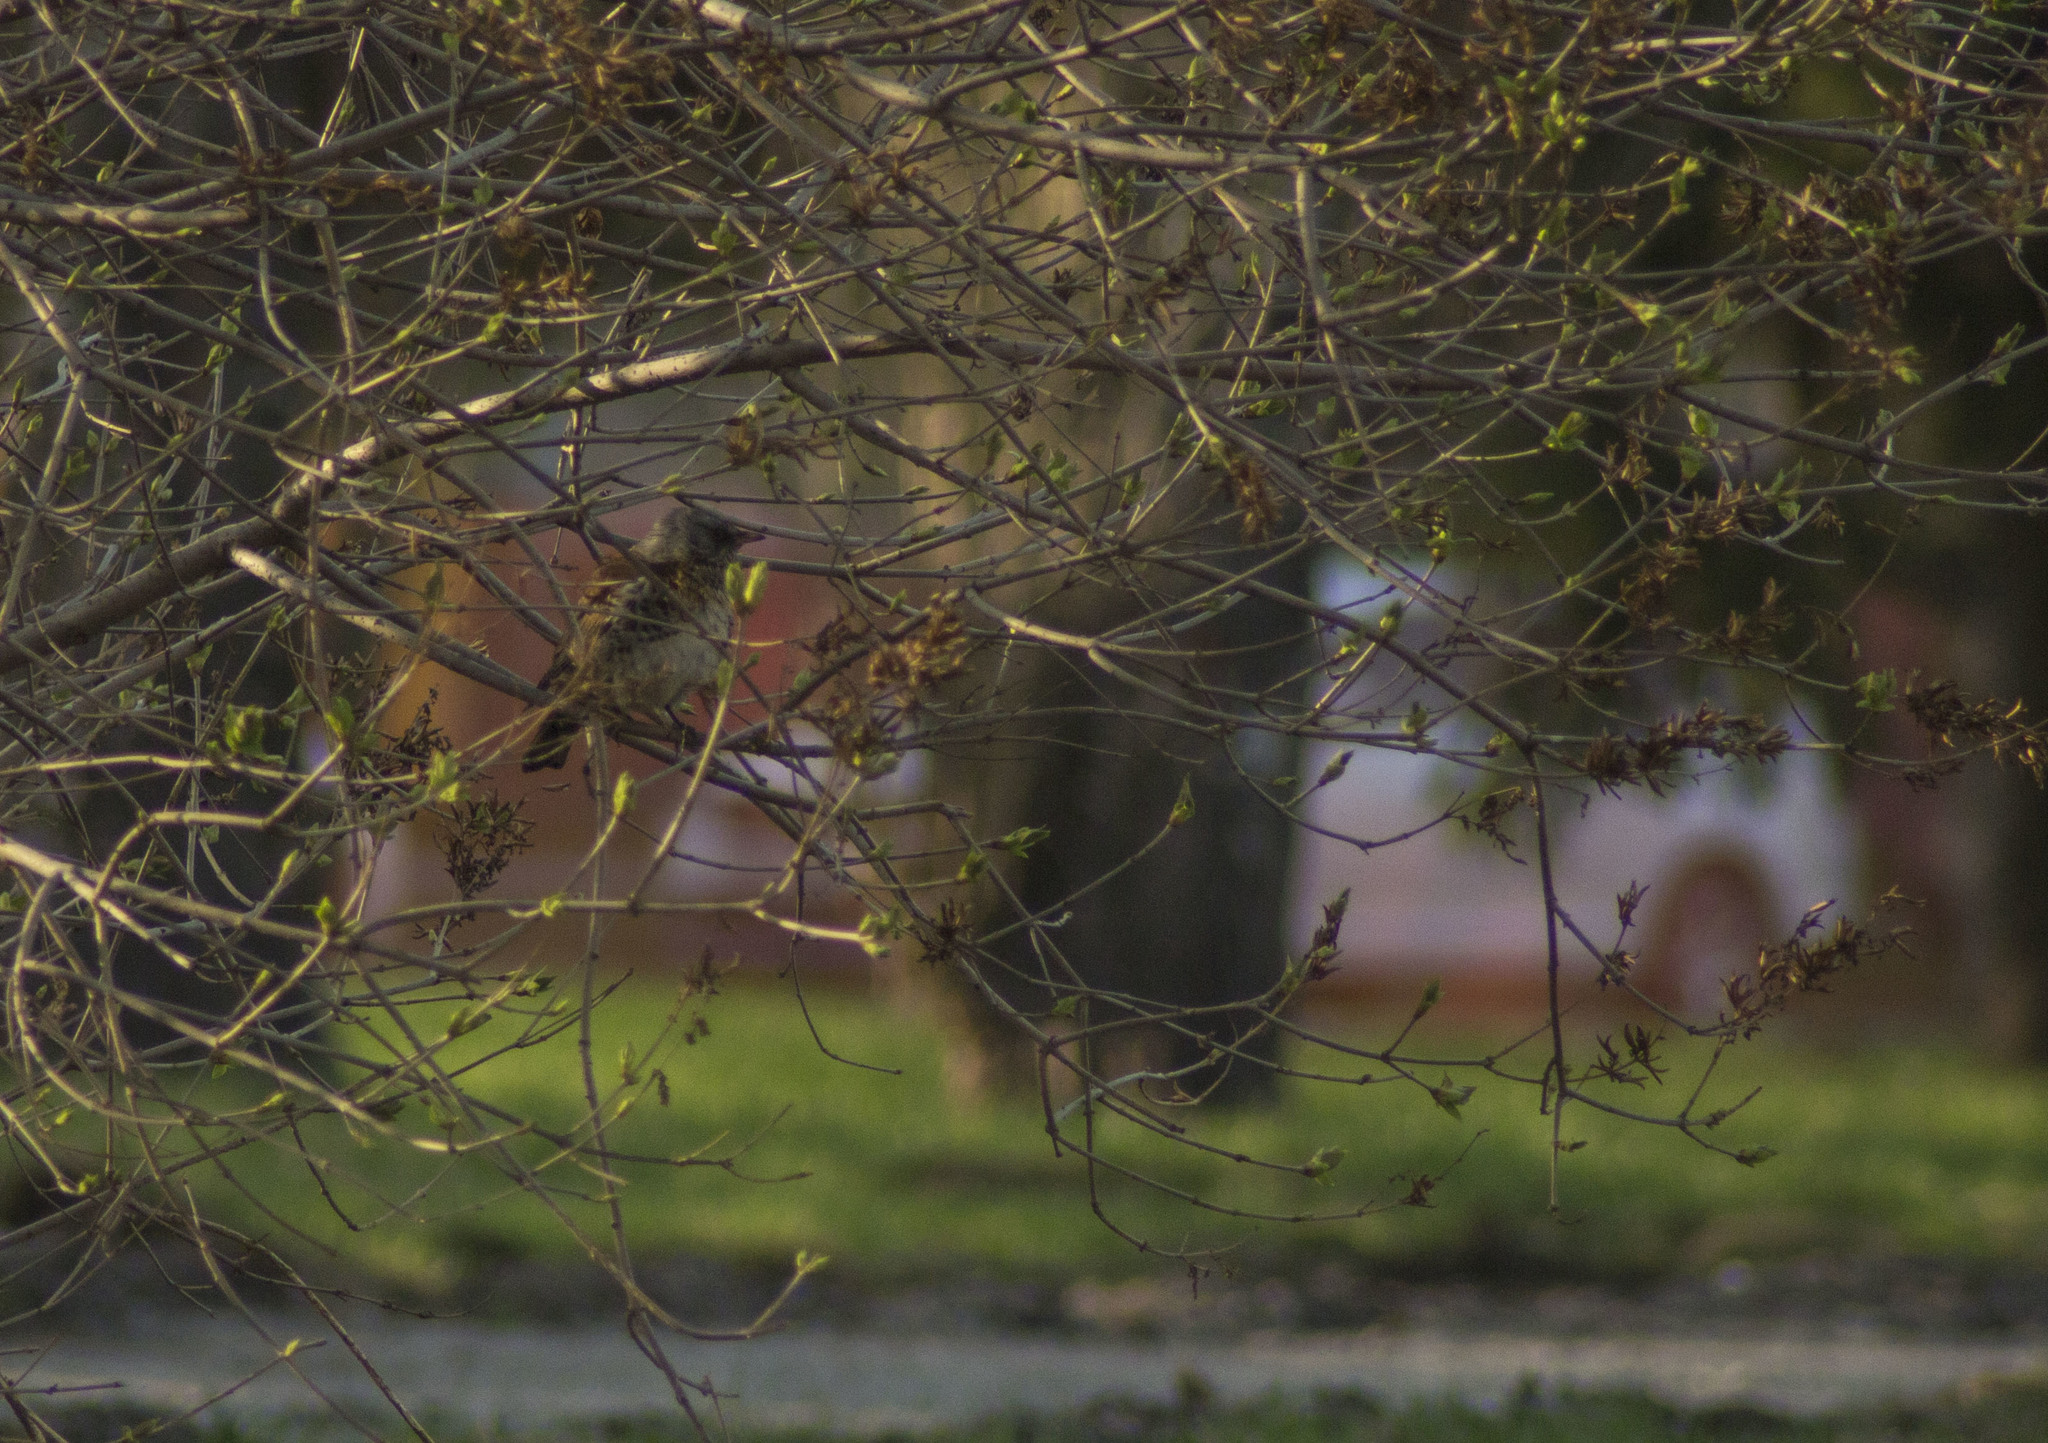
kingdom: Animalia
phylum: Chordata
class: Aves
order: Passeriformes
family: Turdidae
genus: Turdus
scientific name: Turdus pilaris
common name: Fieldfare
